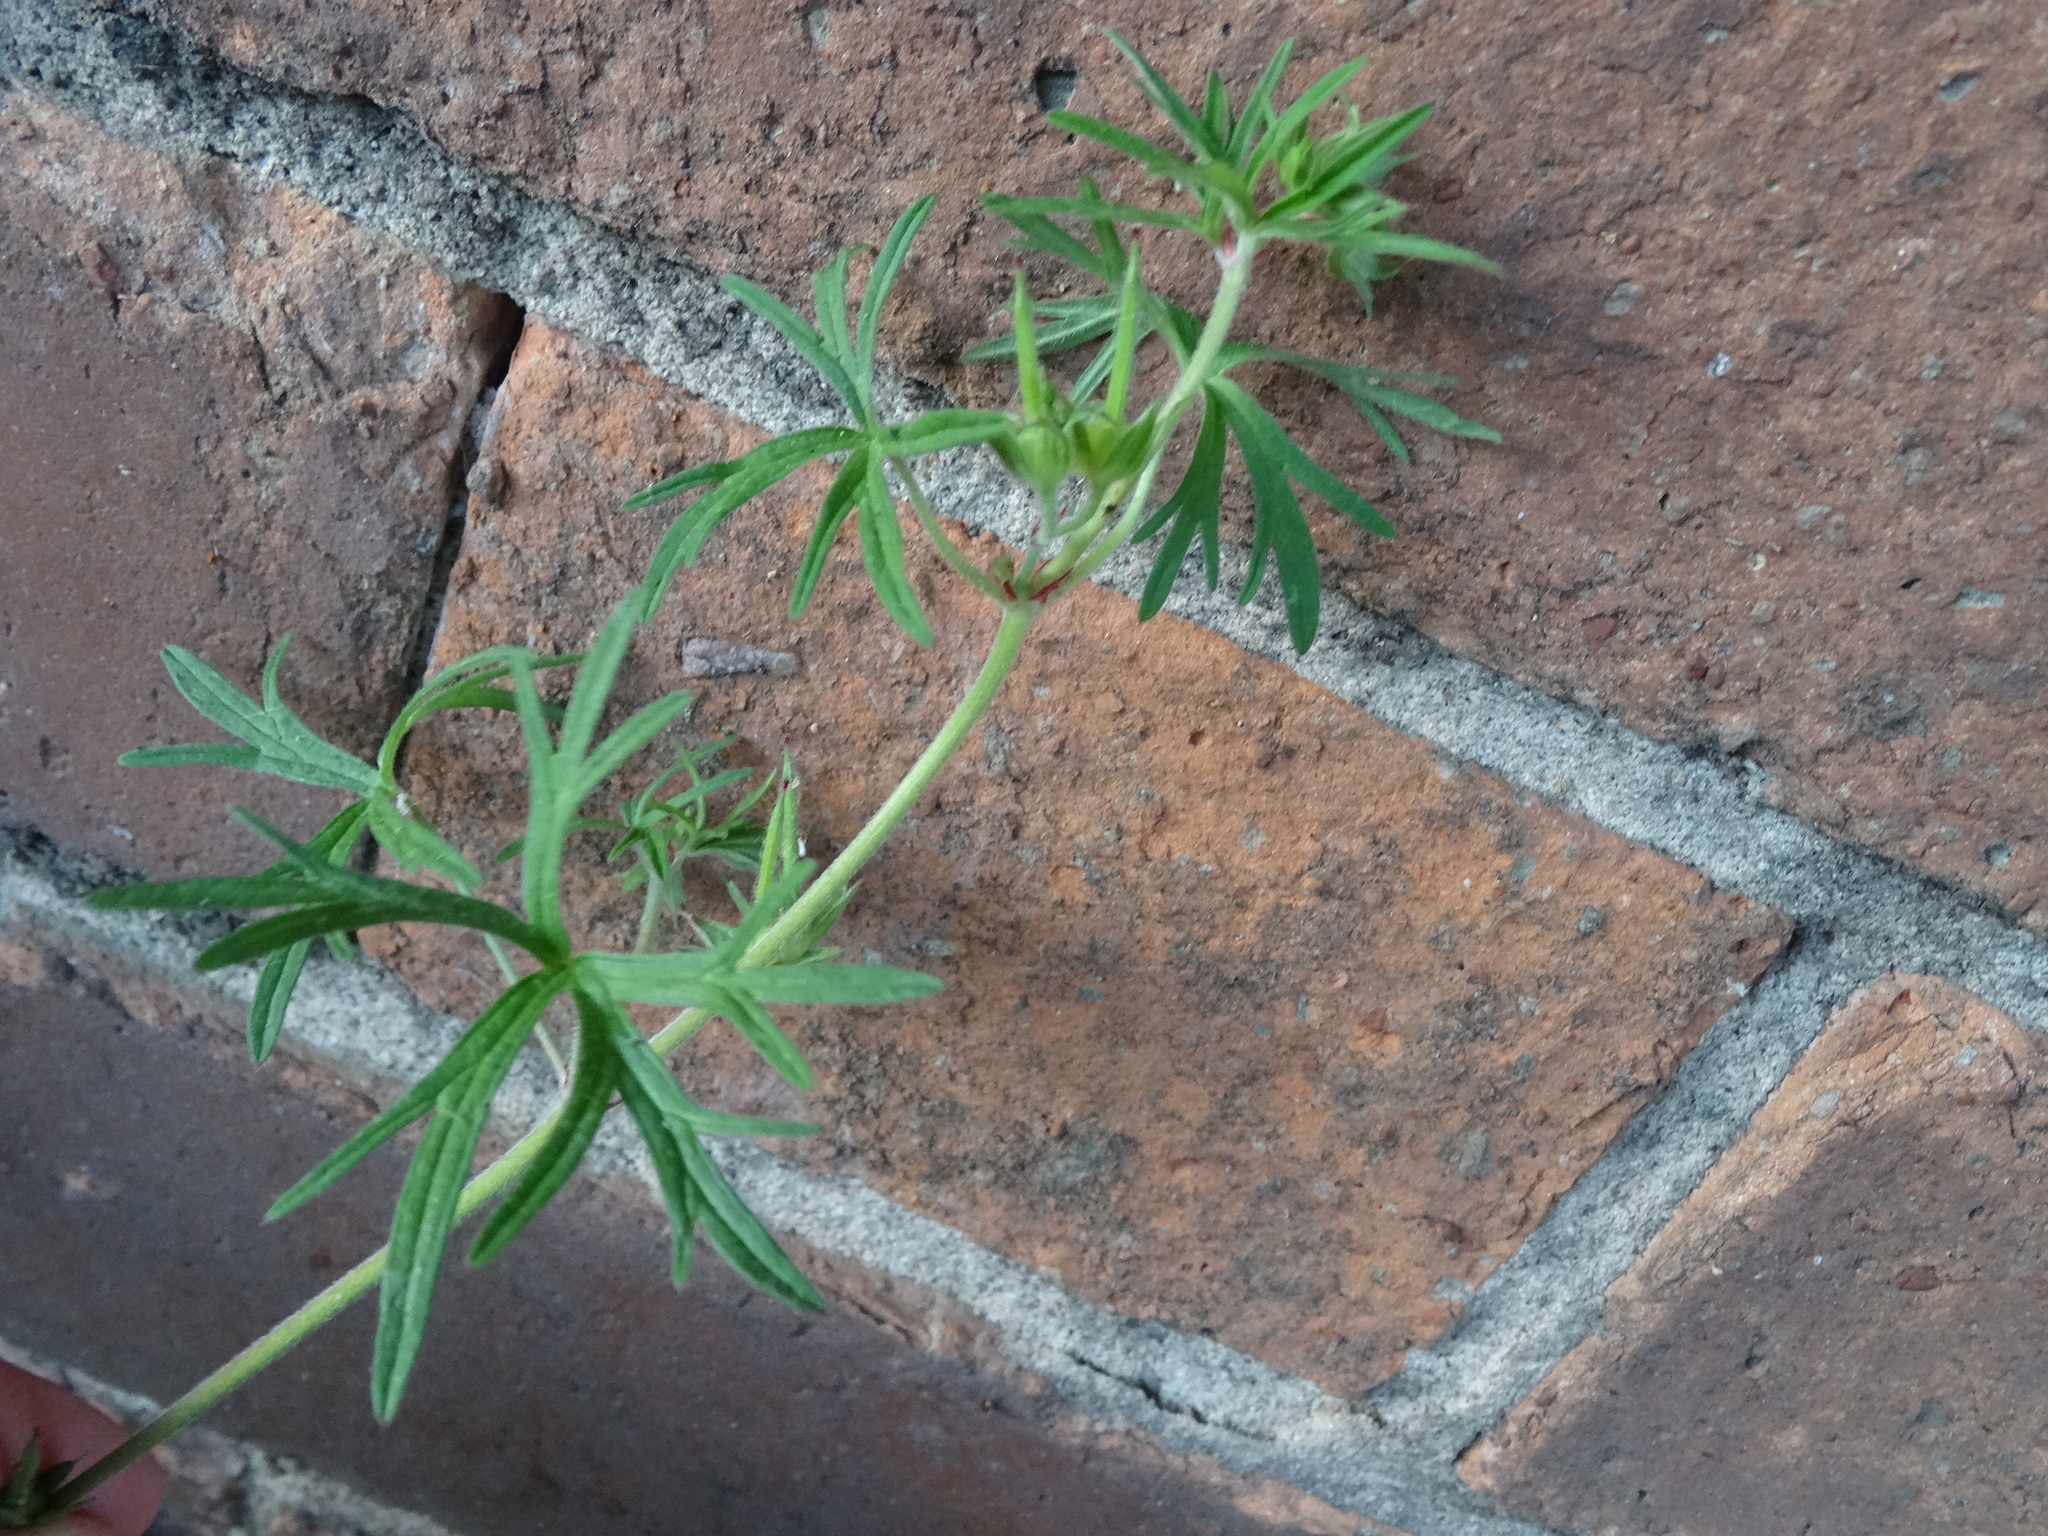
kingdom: Plantae
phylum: Tracheophyta
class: Magnoliopsida
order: Geraniales
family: Geraniaceae
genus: Geranium
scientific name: Geranium dissectum
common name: Cut-leaved crane's-bill
